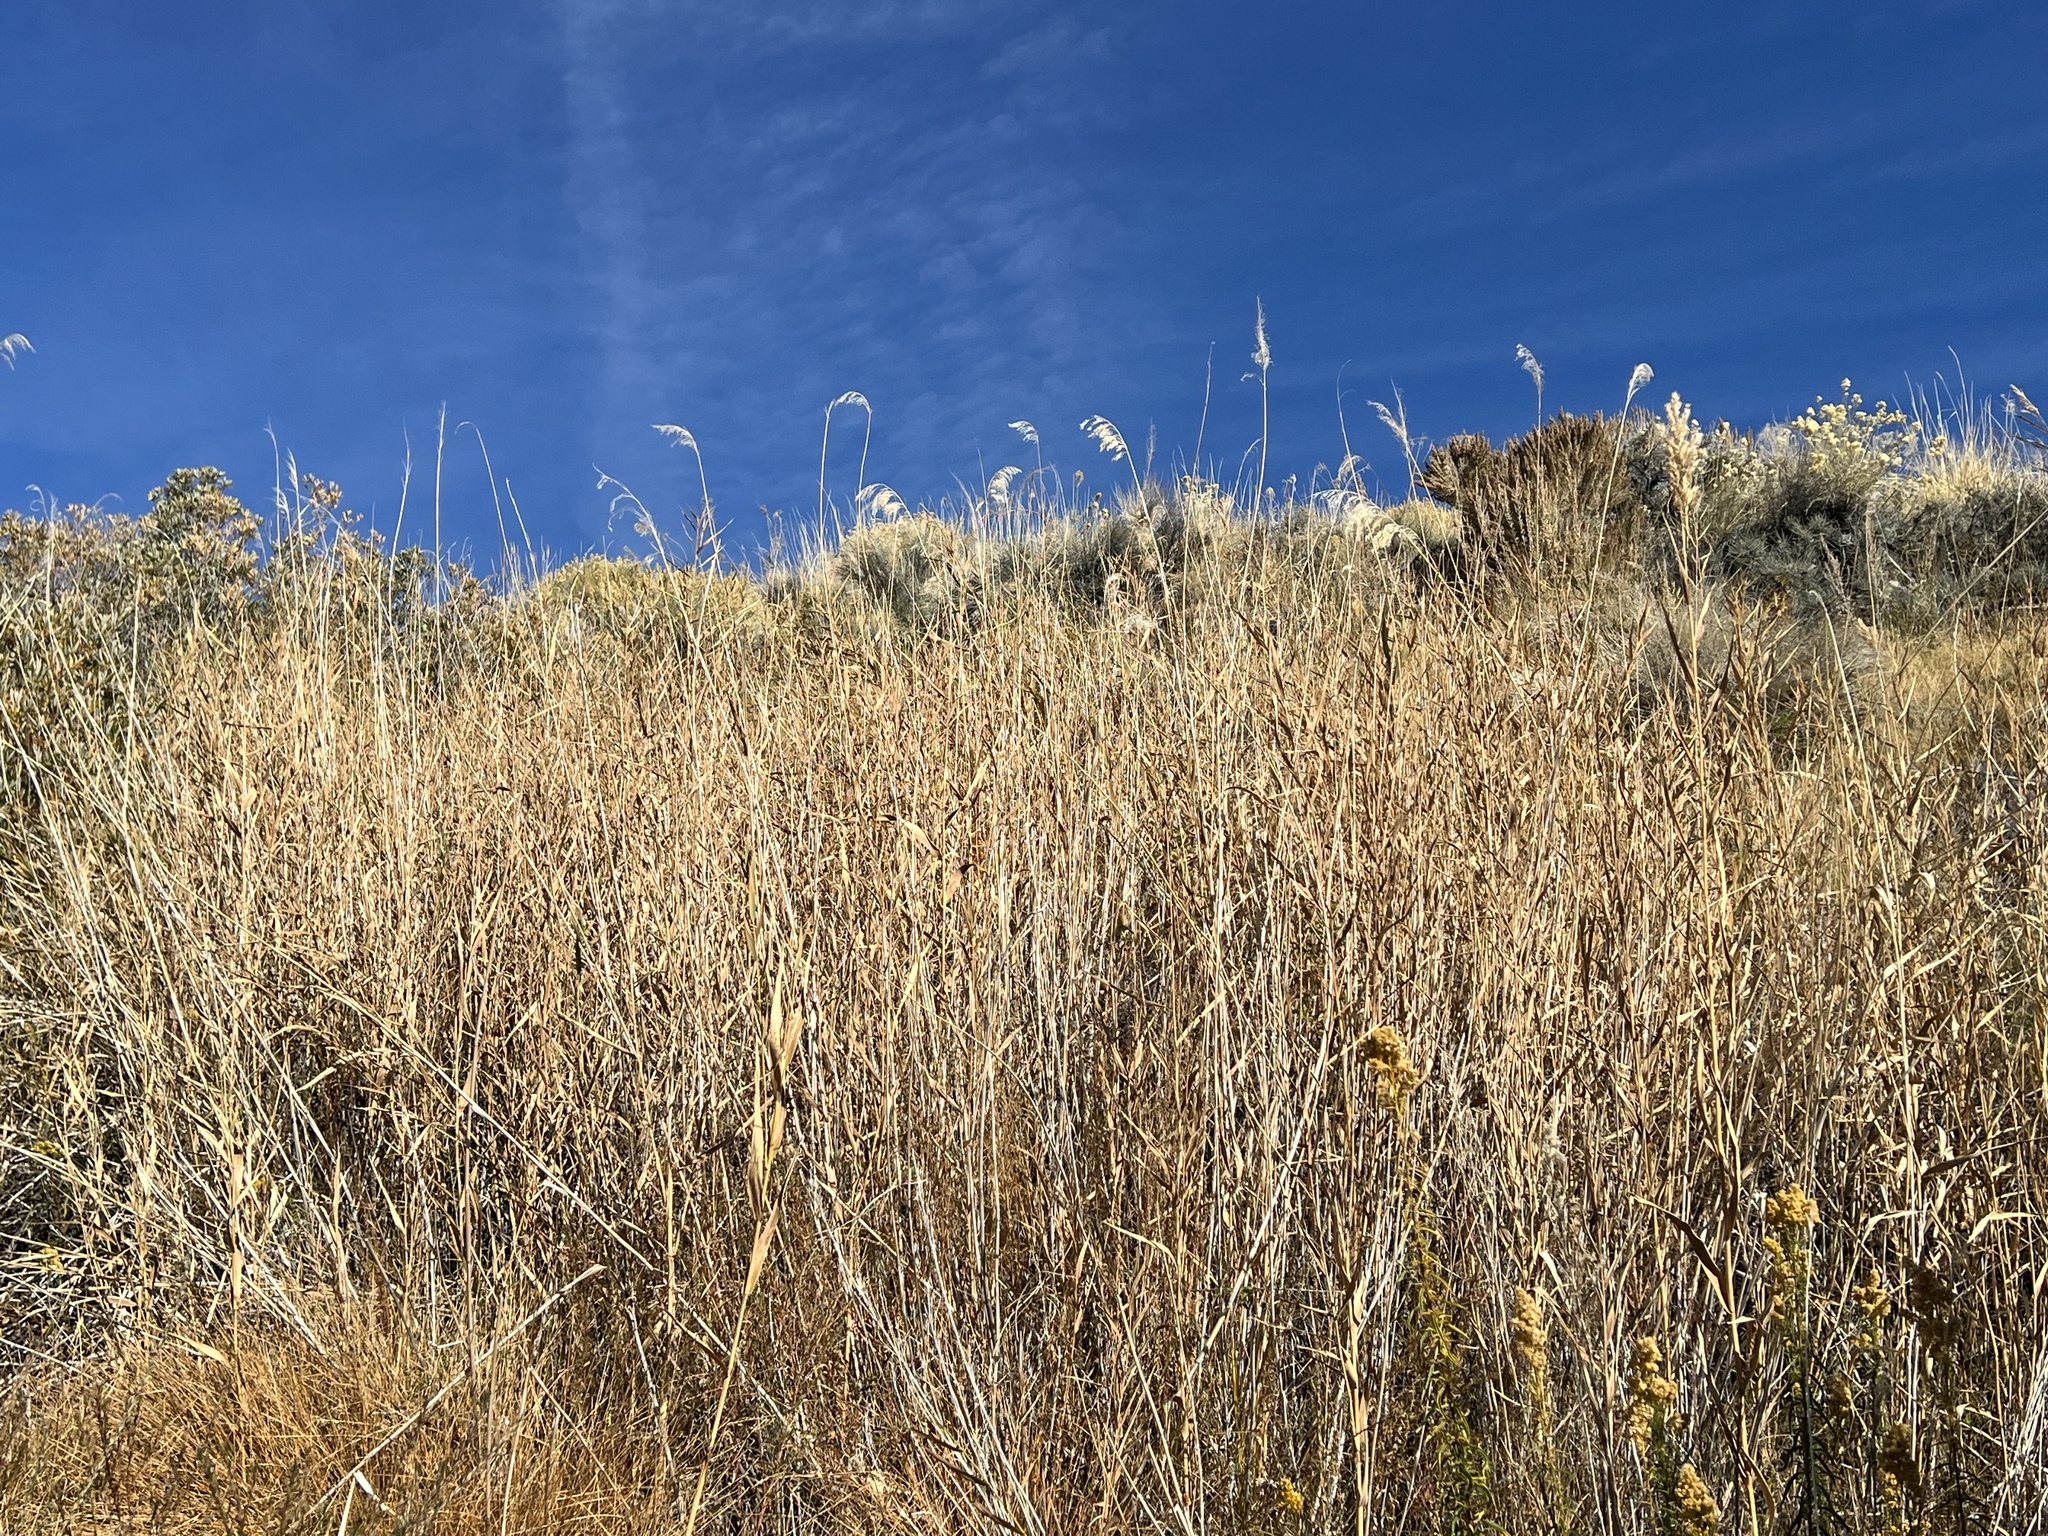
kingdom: Plantae
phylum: Tracheophyta
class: Liliopsida
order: Poales
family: Poaceae
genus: Phragmites
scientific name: Phragmites australis
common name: Common reed
